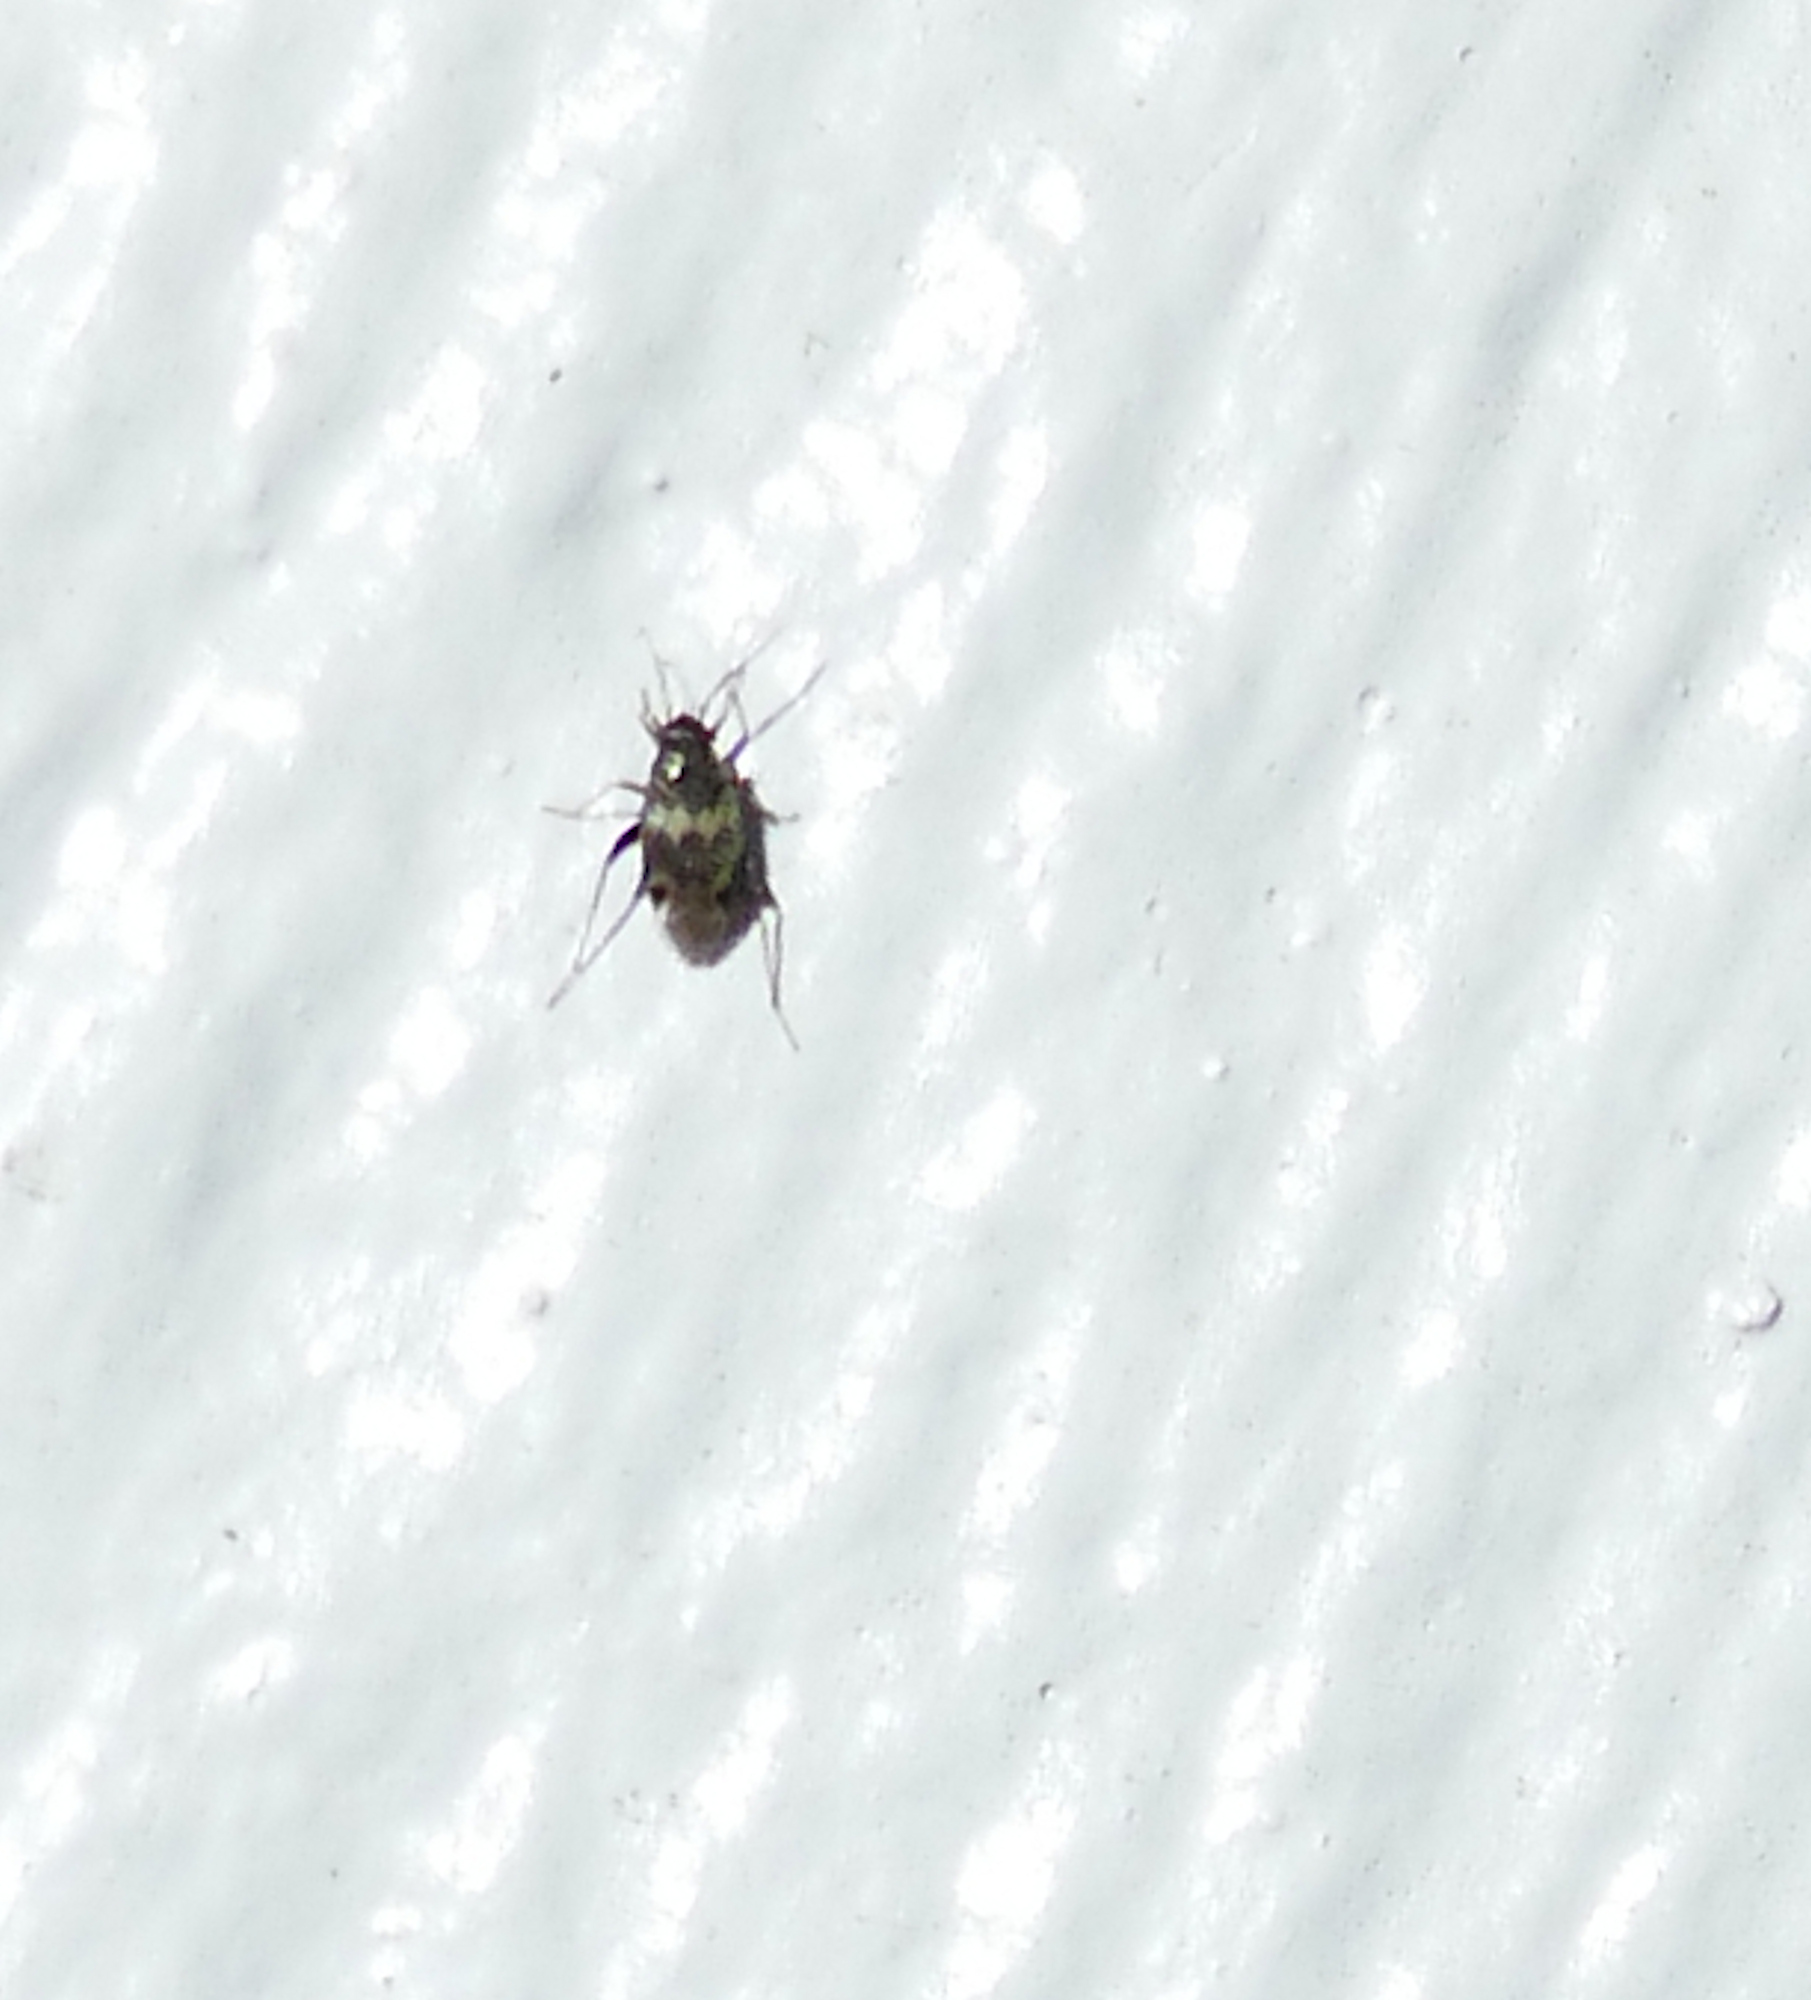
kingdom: Animalia
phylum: Arthropoda
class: Insecta
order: Hemiptera
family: Miridae
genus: Spanagonicus
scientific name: Spanagonicus albofasciatus
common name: Whitemarked fleahopper
